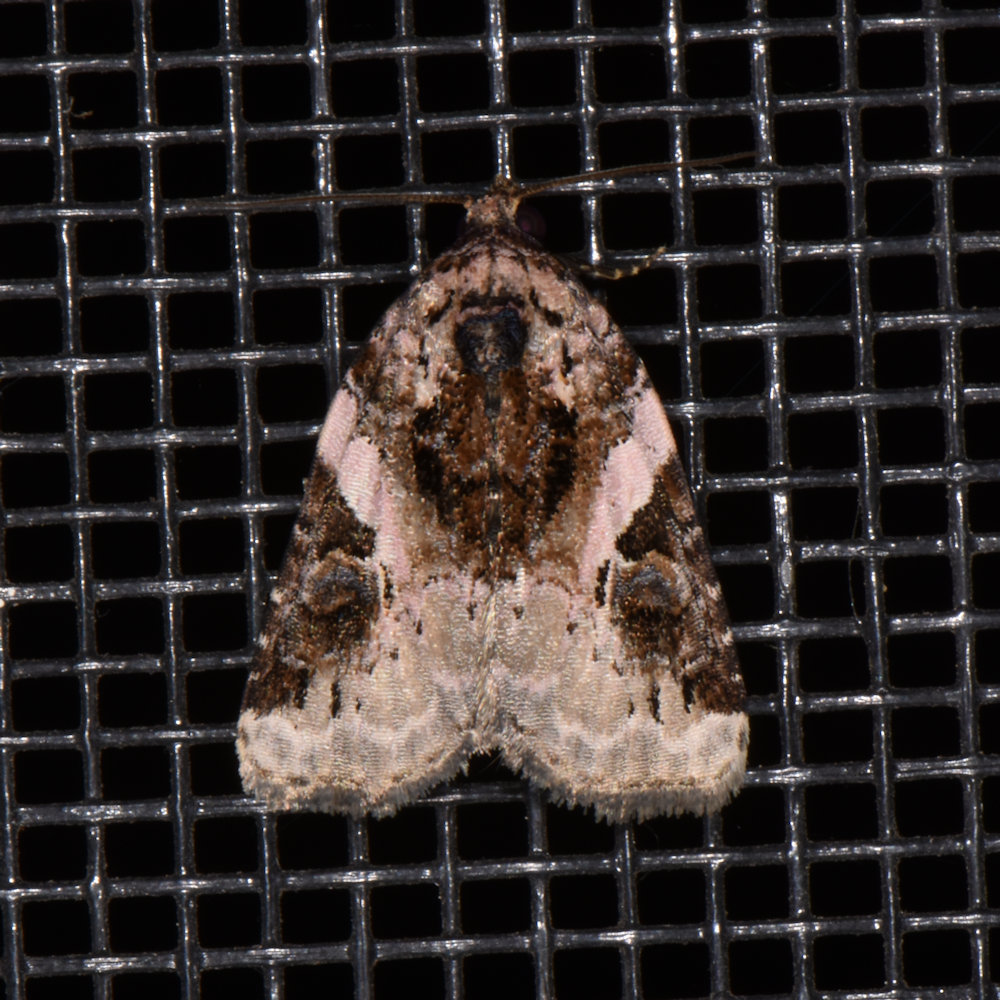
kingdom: Animalia
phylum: Arthropoda
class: Insecta
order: Lepidoptera
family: Noctuidae
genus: Pseudeustrotia
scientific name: Pseudeustrotia carneola
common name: Pink-barred lithacodia moth
